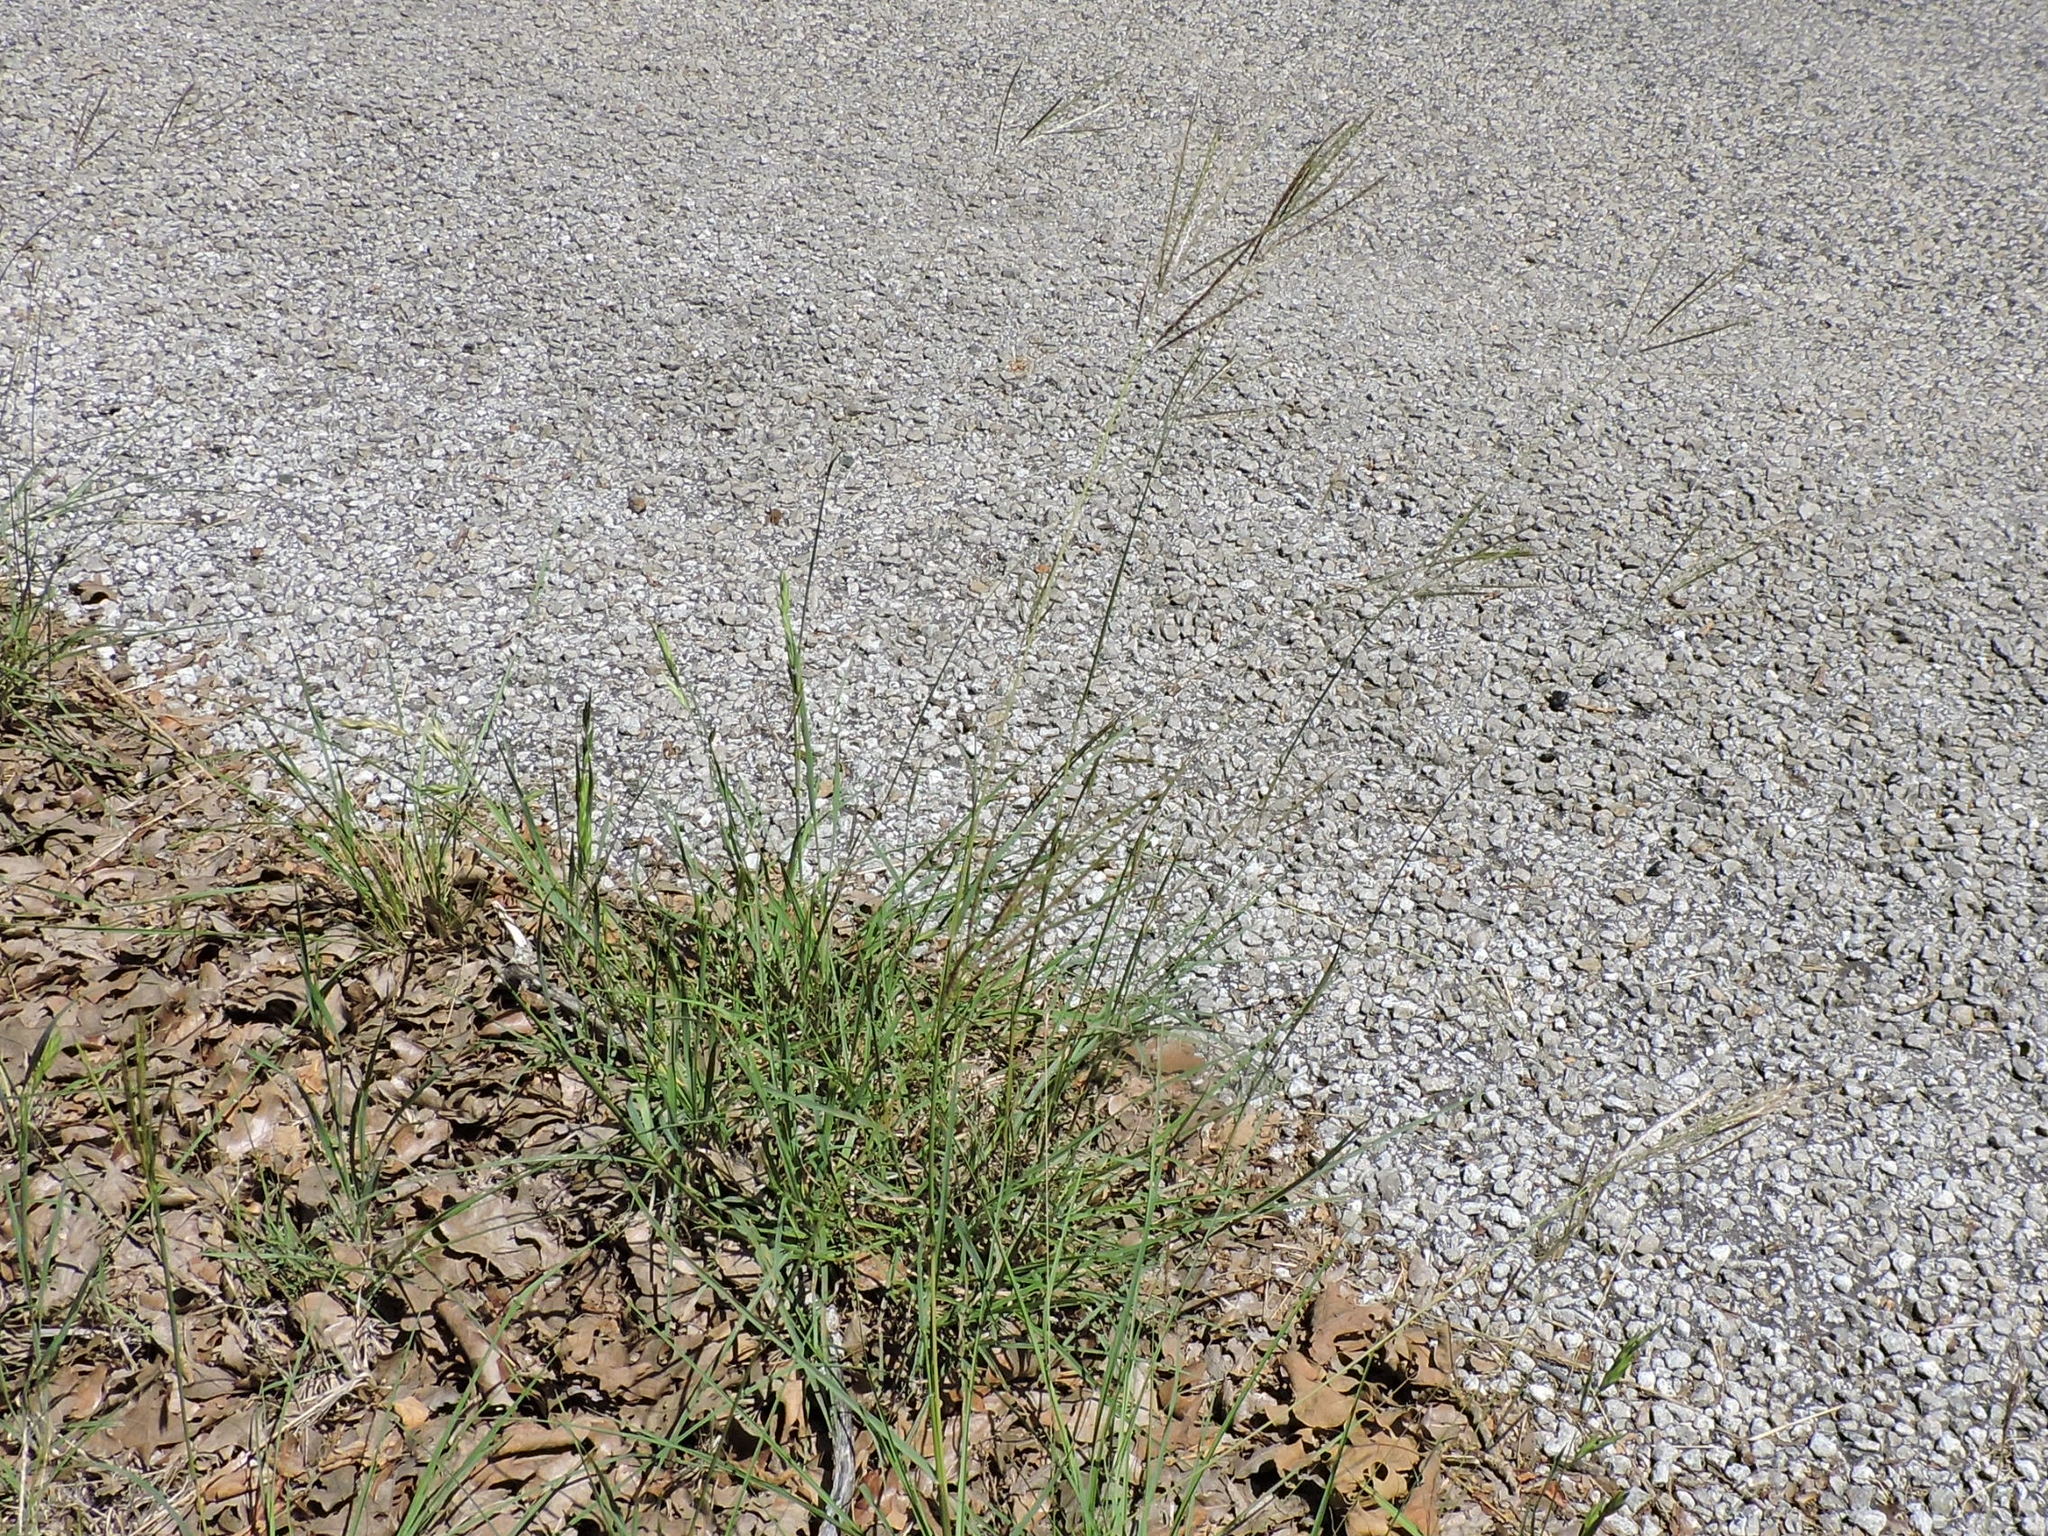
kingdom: Plantae
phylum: Tracheophyta
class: Liliopsida
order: Poales
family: Poaceae
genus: Bothriochloa
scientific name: Bothriochloa ischaemum
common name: Yellow bluestem
